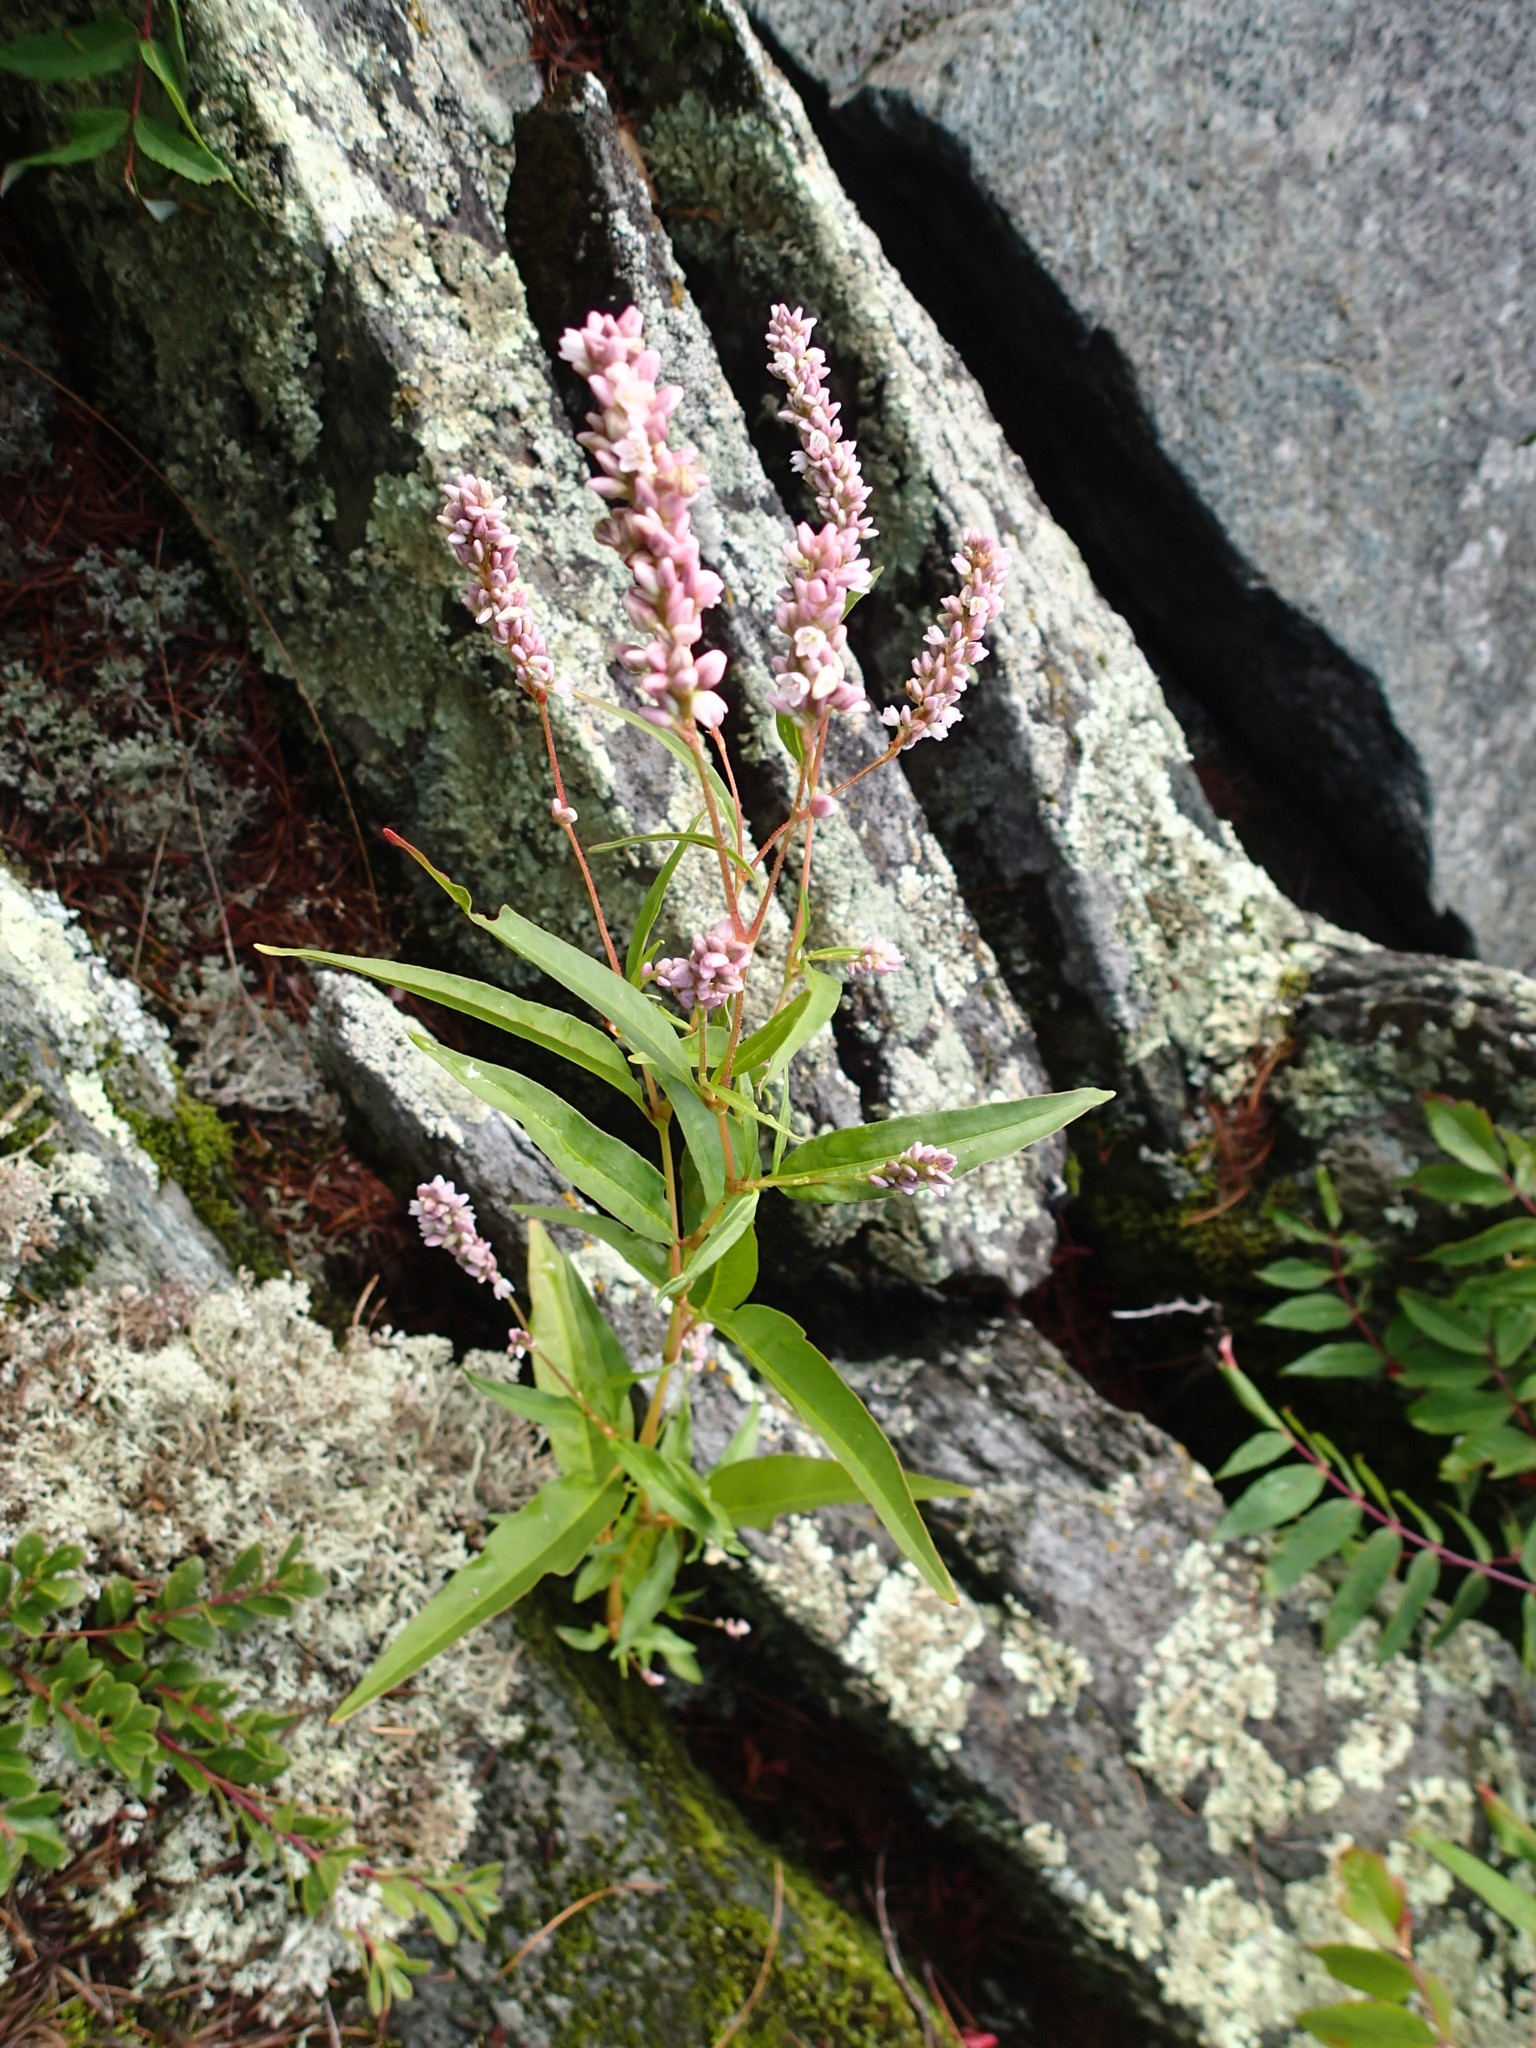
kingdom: Plantae
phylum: Tracheophyta
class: Magnoliopsida
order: Caryophyllales
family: Polygonaceae
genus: Persicaria
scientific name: Persicaria pensylvanica
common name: Pinkweed
